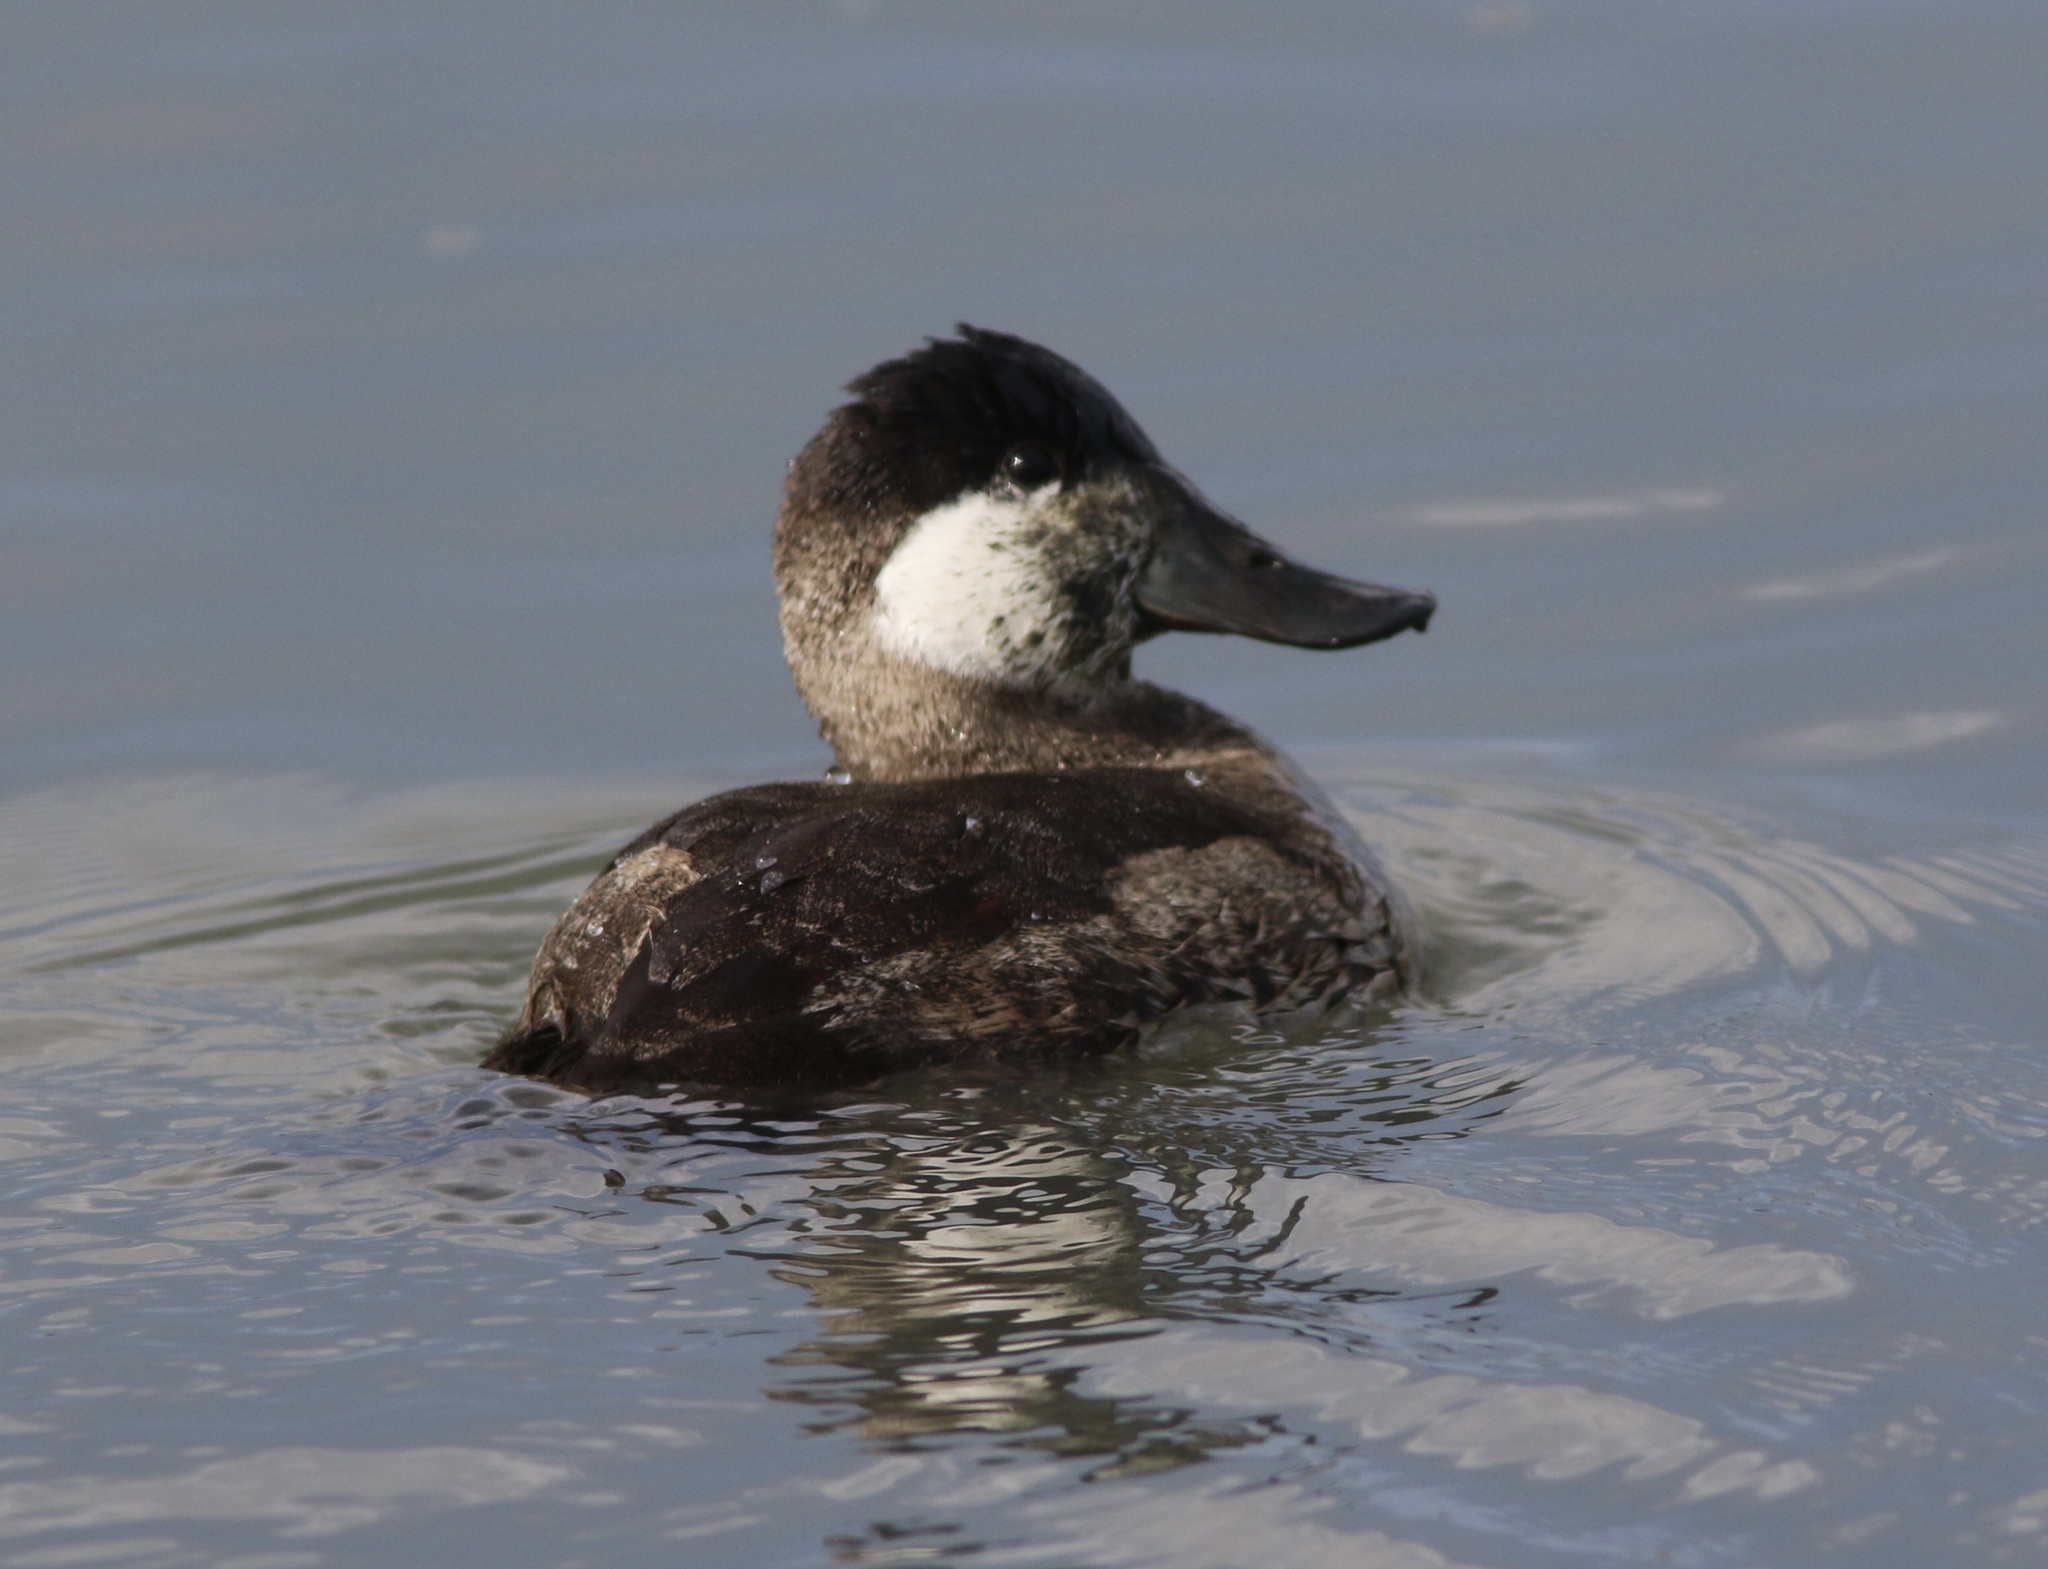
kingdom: Animalia
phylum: Chordata
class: Aves
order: Anseriformes
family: Anatidae
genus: Oxyura
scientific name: Oxyura jamaicensis
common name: Ruddy duck
